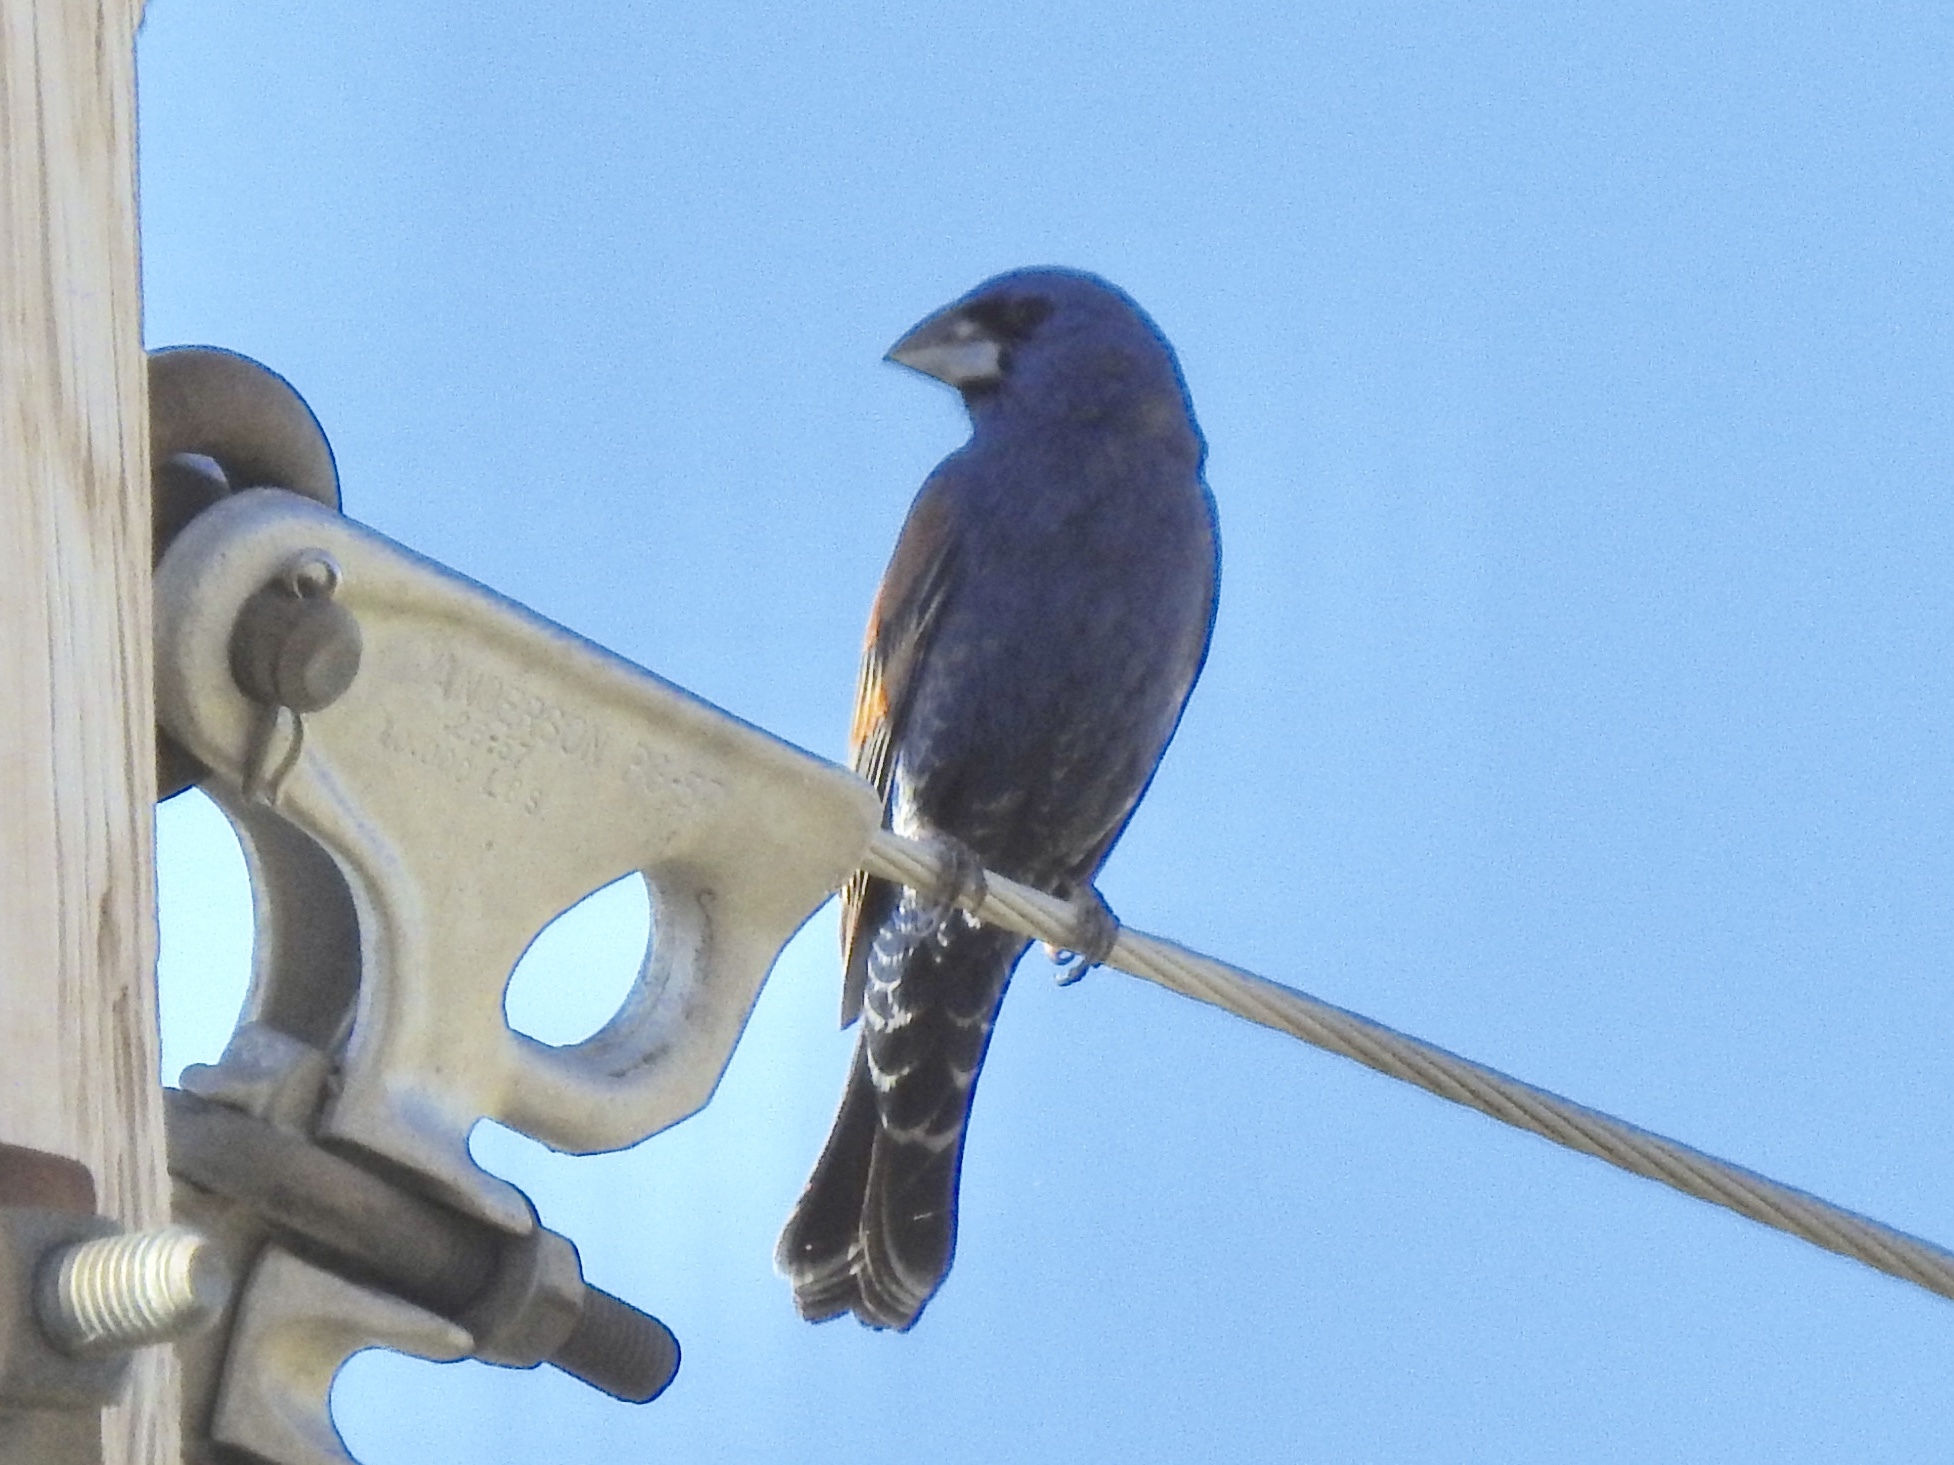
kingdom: Animalia
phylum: Chordata
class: Aves
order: Passeriformes
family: Cardinalidae
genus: Passerina
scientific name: Passerina caerulea
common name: Blue grosbeak
